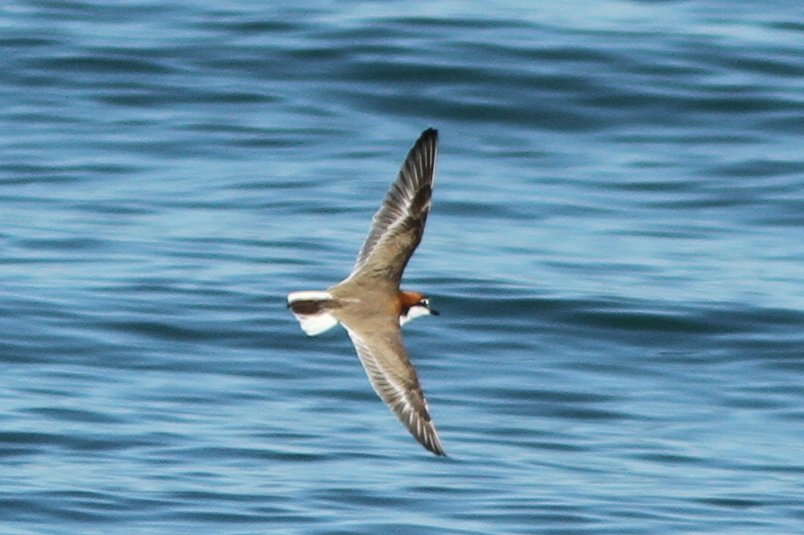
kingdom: Animalia
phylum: Chordata
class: Aves
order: Charadriiformes
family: Charadriidae
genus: Anarhynchus
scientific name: Anarhynchus
